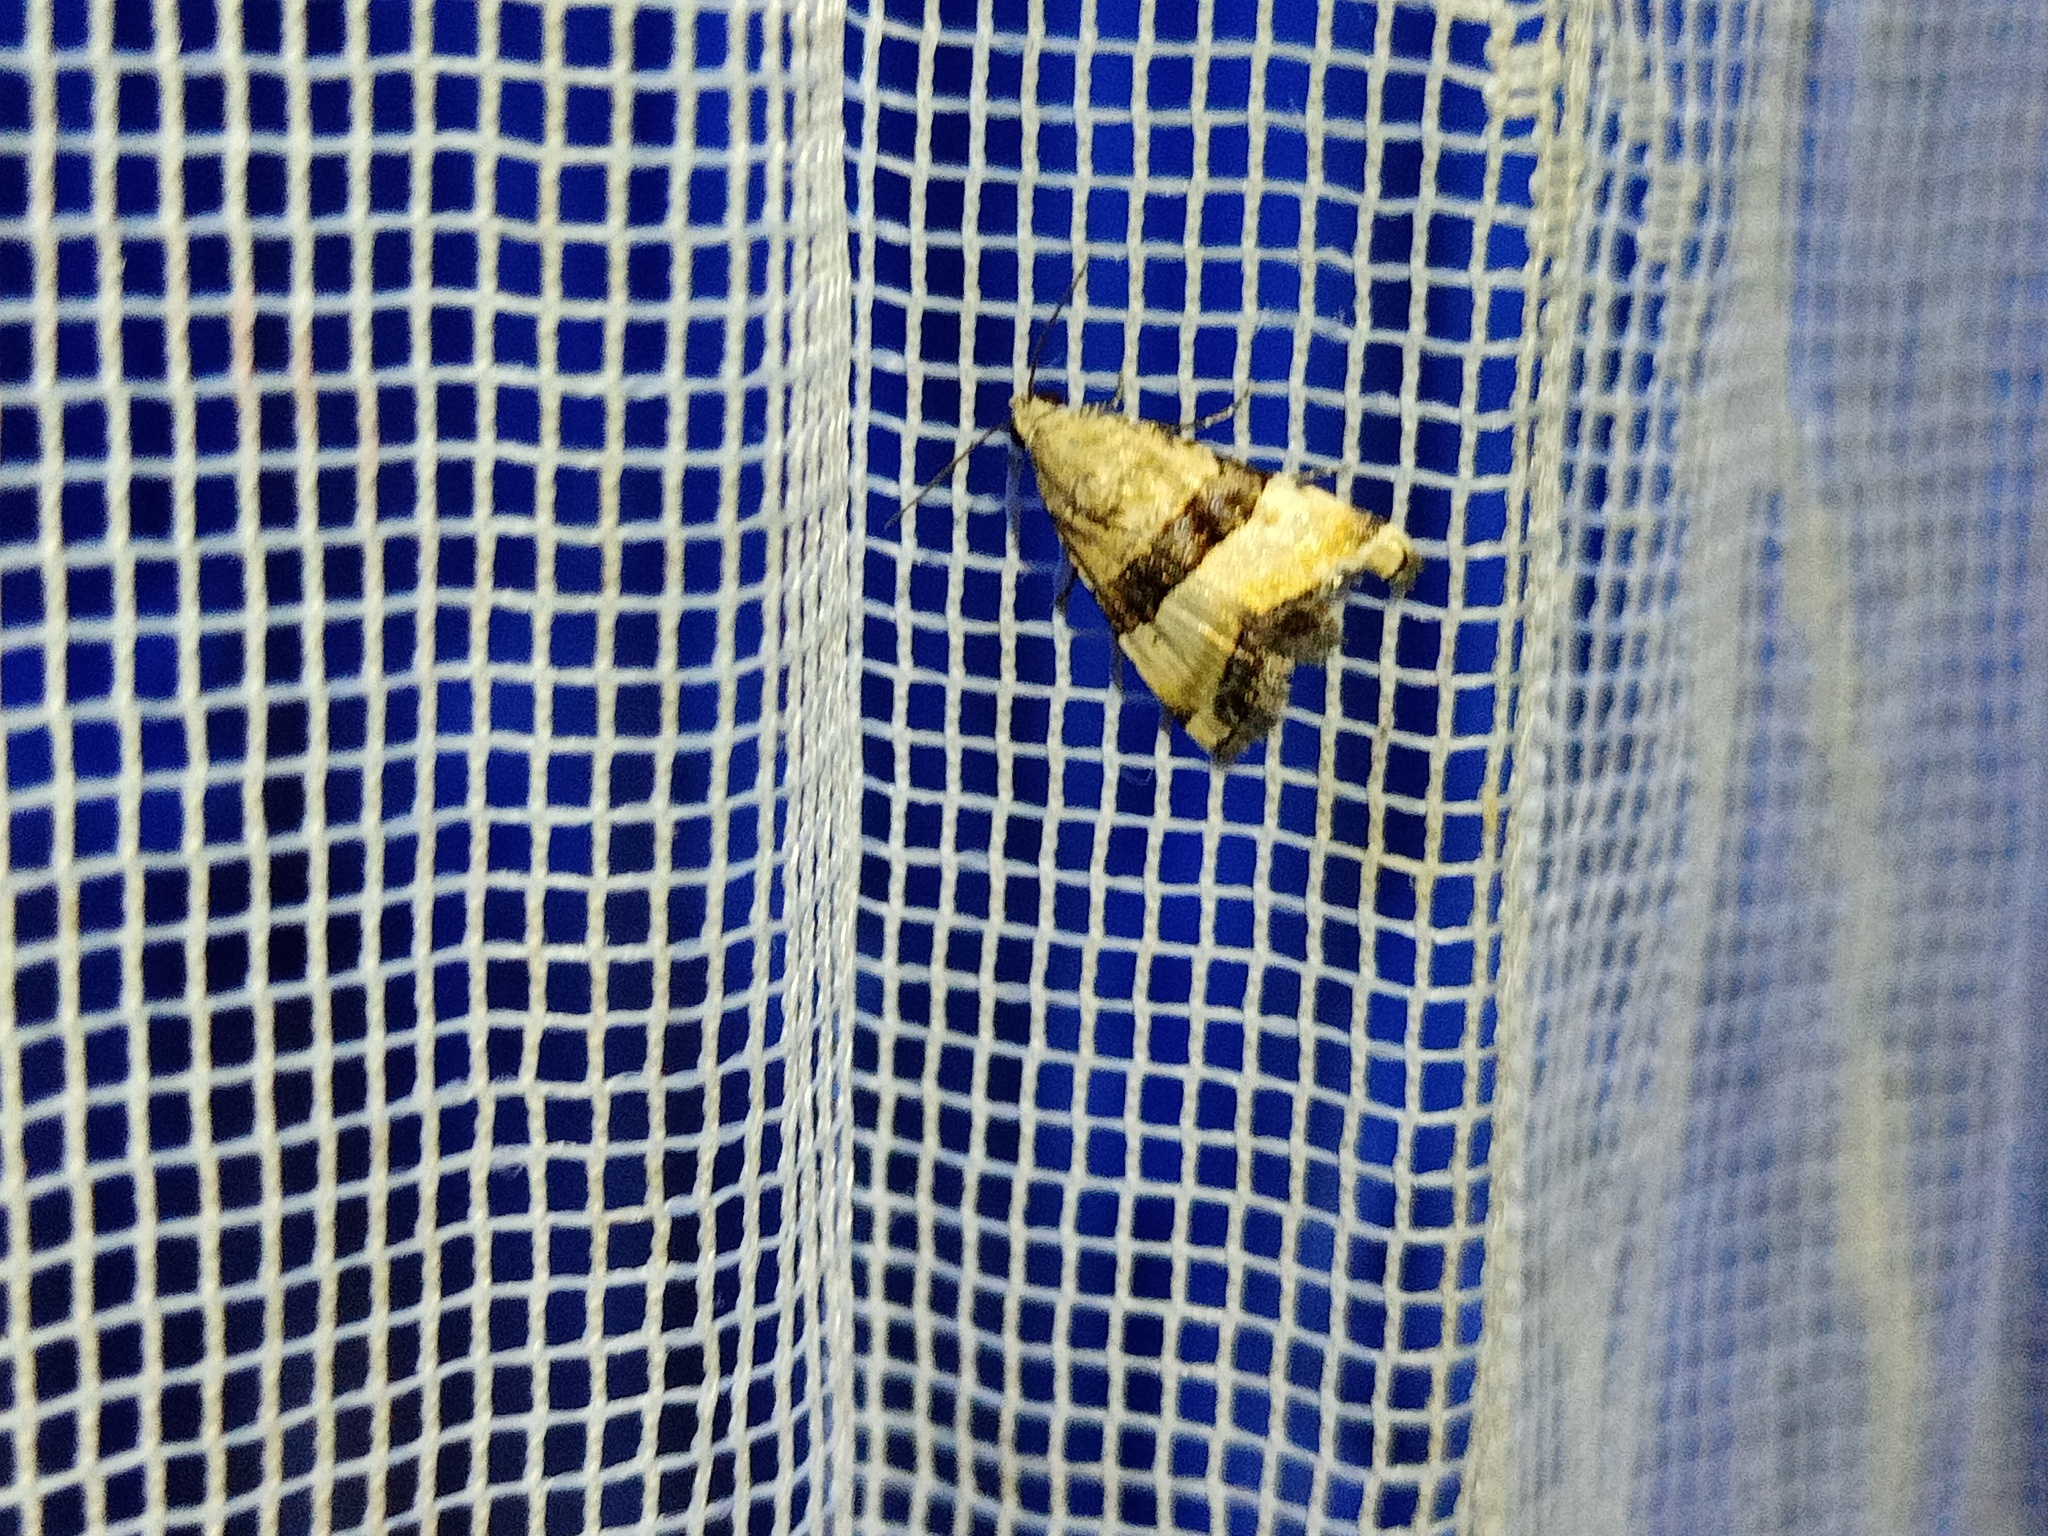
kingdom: Animalia
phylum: Arthropoda
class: Insecta
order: Lepidoptera
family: Noctuidae
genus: Pseudozarba
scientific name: Pseudozarba bipartita
